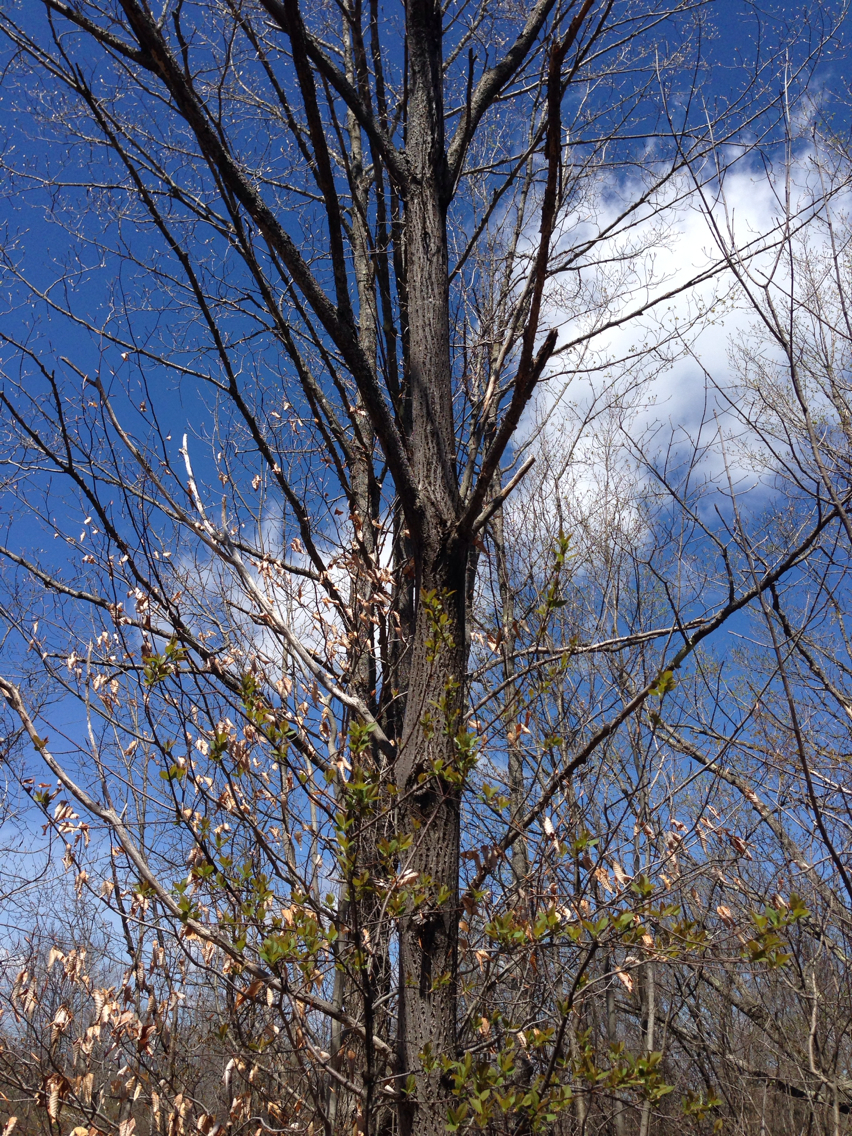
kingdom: Plantae
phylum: Tracheophyta
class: Magnoliopsida
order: Fagales
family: Juglandaceae
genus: Juglans
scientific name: Juglans cinerea
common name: Butternut
